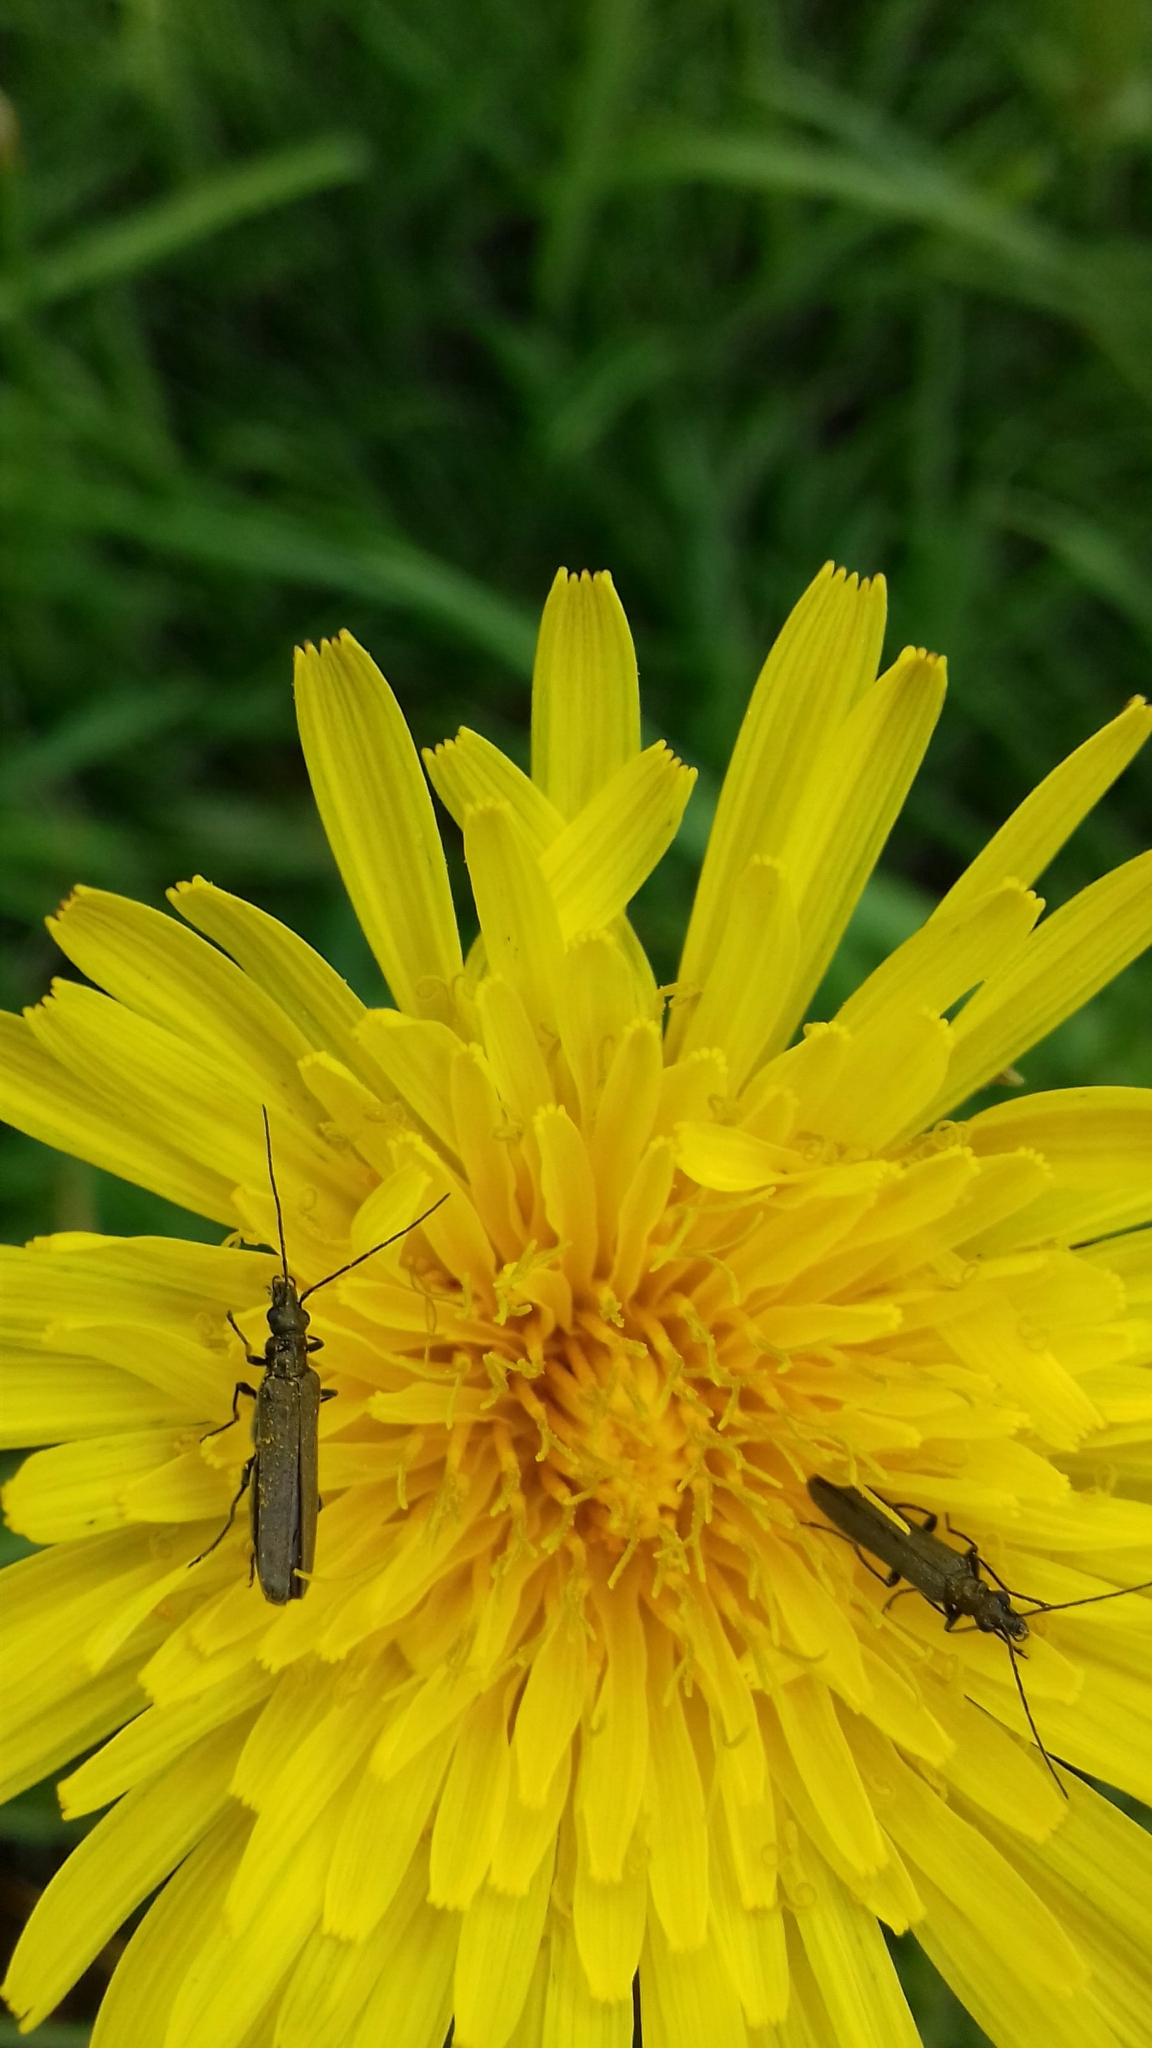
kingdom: Animalia
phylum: Arthropoda
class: Insecta
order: Coleoptera
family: Oedemeridae
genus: Oedemera
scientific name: Oedemera lurida
